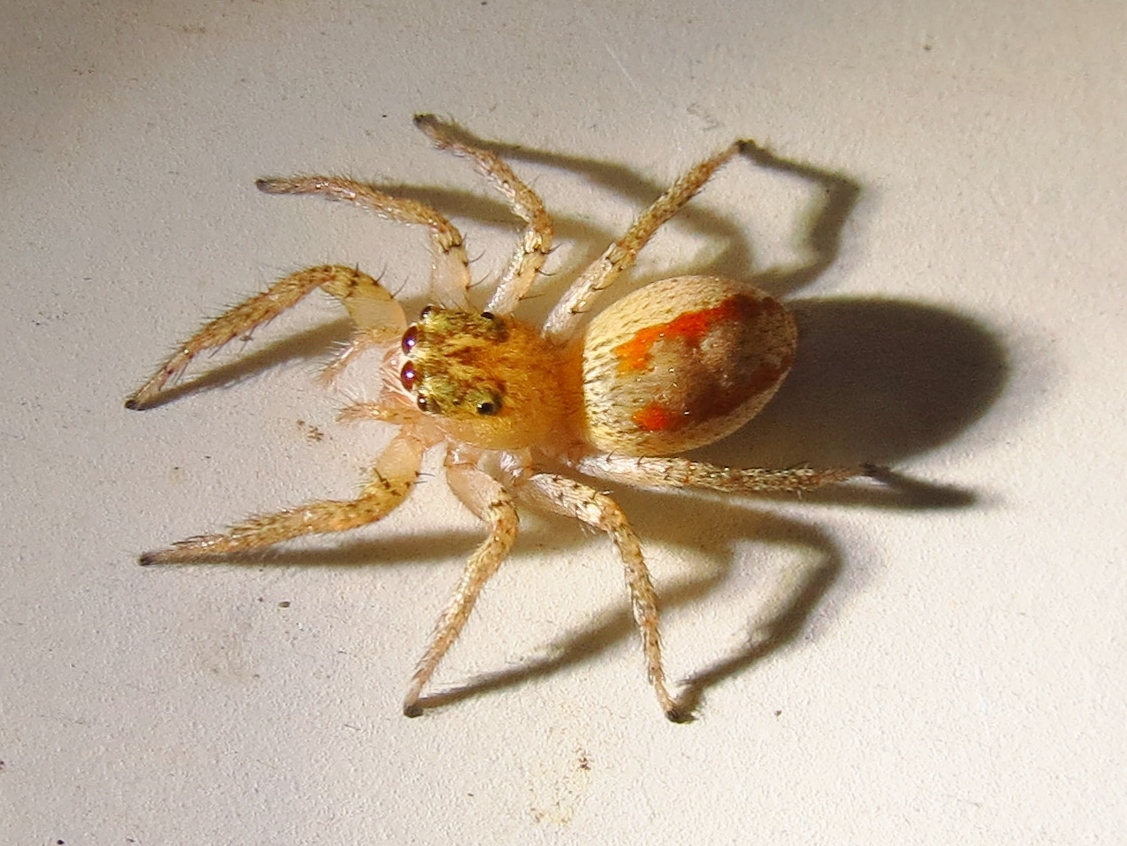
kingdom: Animalia
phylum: Arthropoda
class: Arachnida
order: Araneae
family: Salticidae
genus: Maevia
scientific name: Maevia inclemens
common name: Dimorphic jumper
